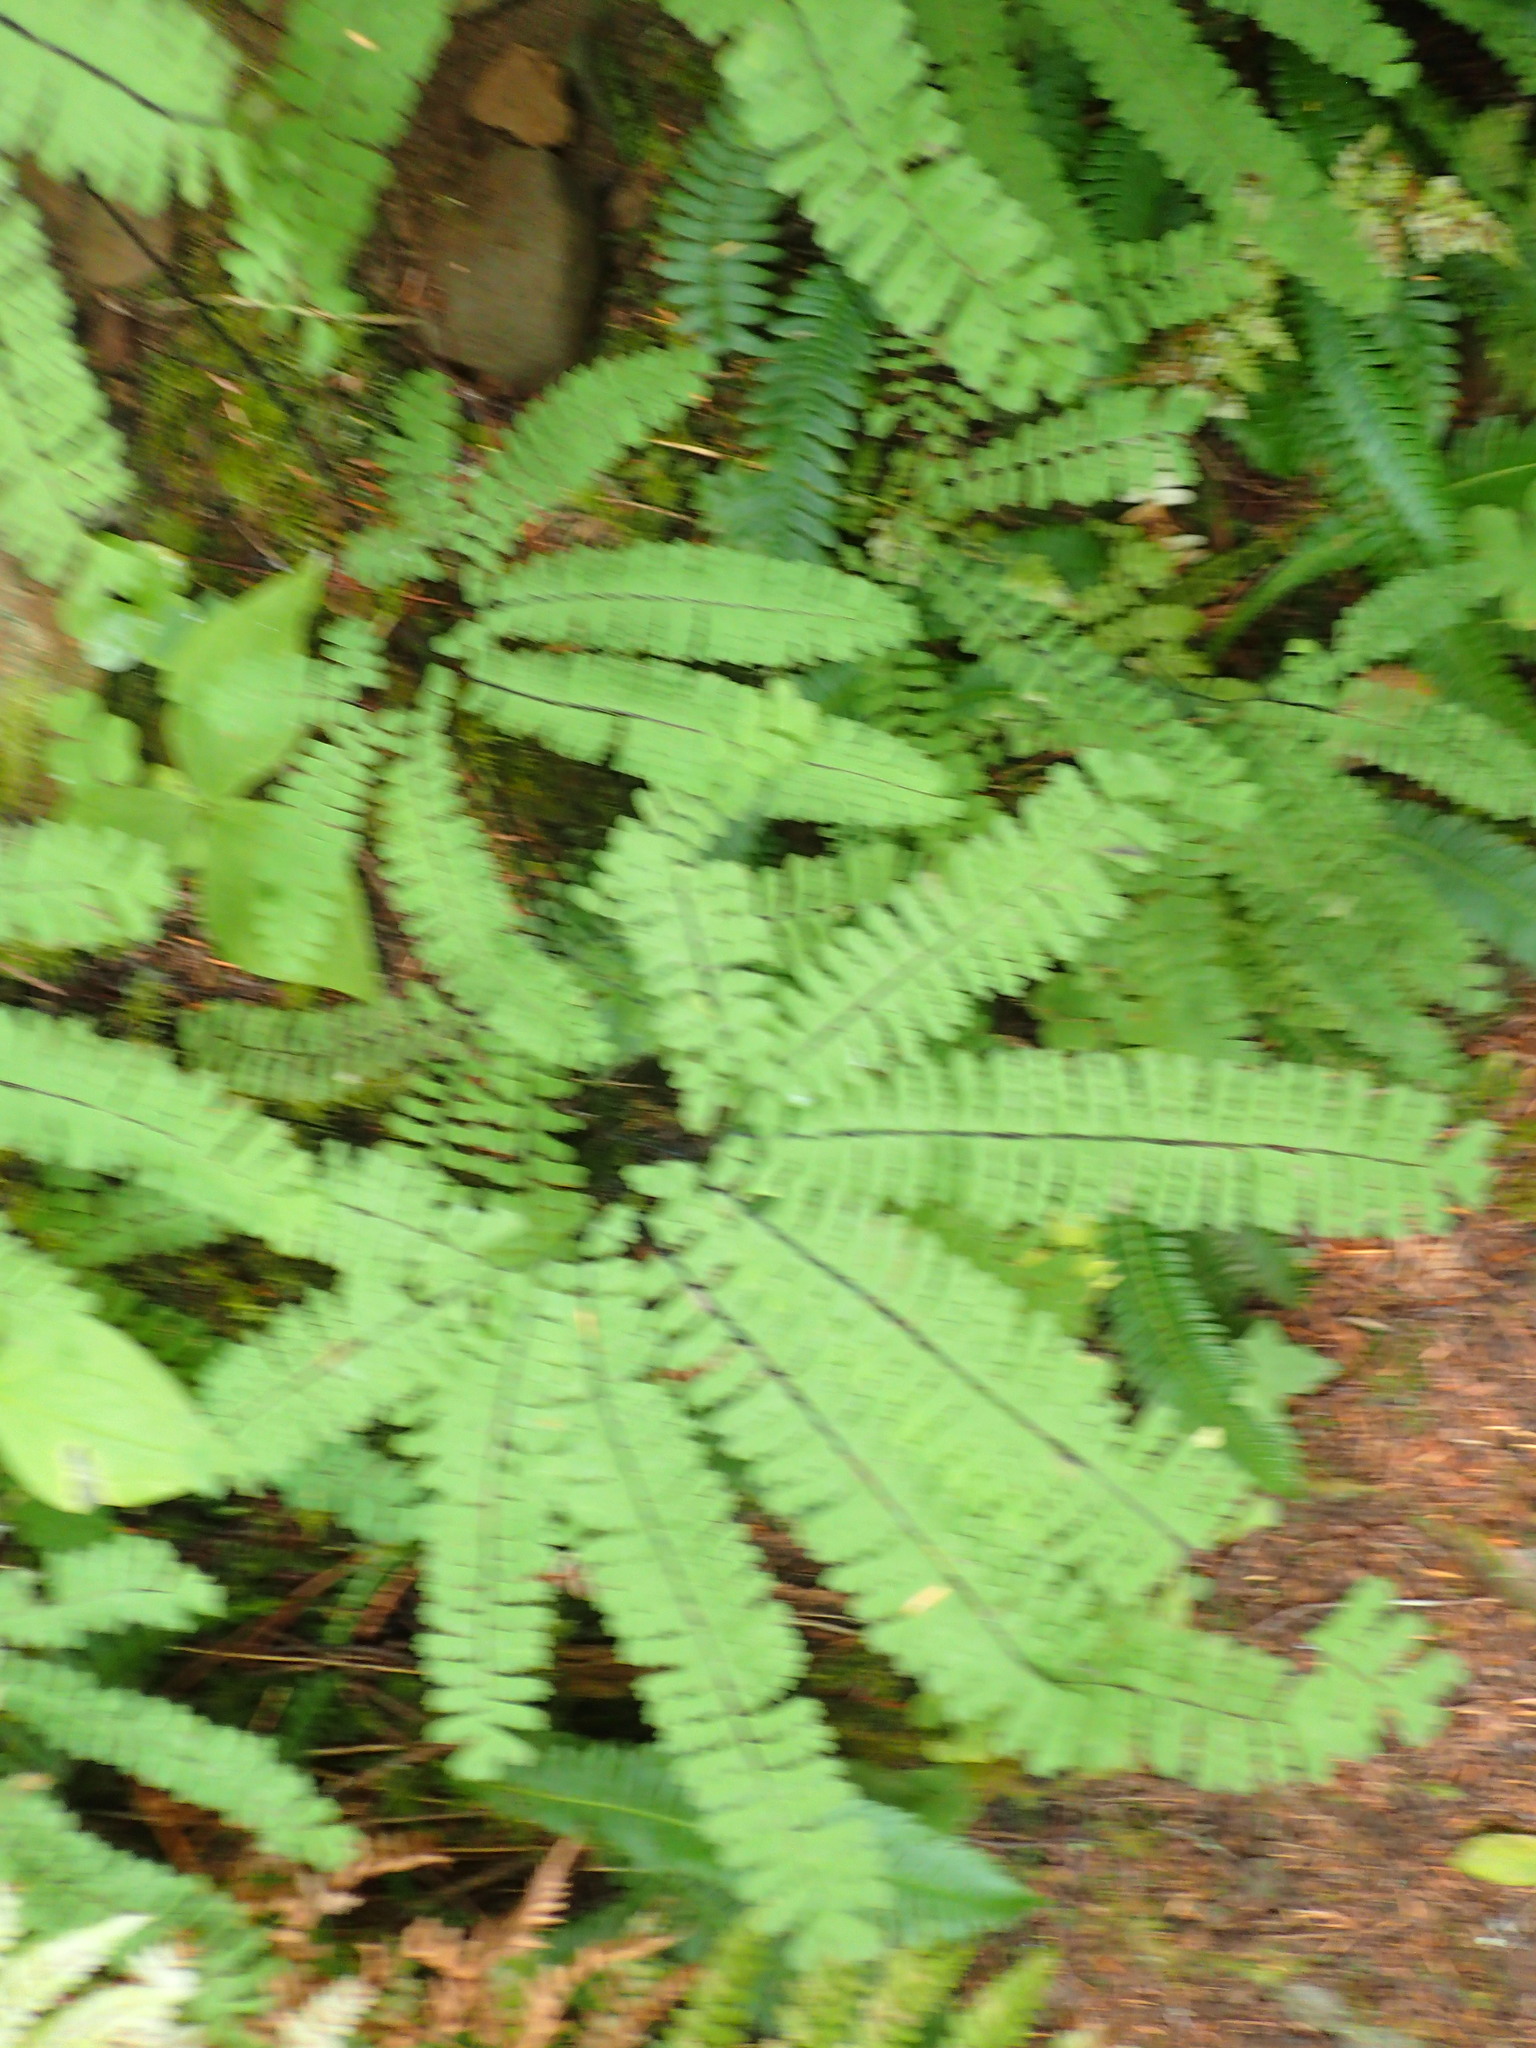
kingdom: Plantae
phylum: Tracheophyta
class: Polypodiopsida
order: Polypodiales
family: Pteridaceae
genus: Adiantum
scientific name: Adiantum aleuticum
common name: Aleutian maidenhair fern
